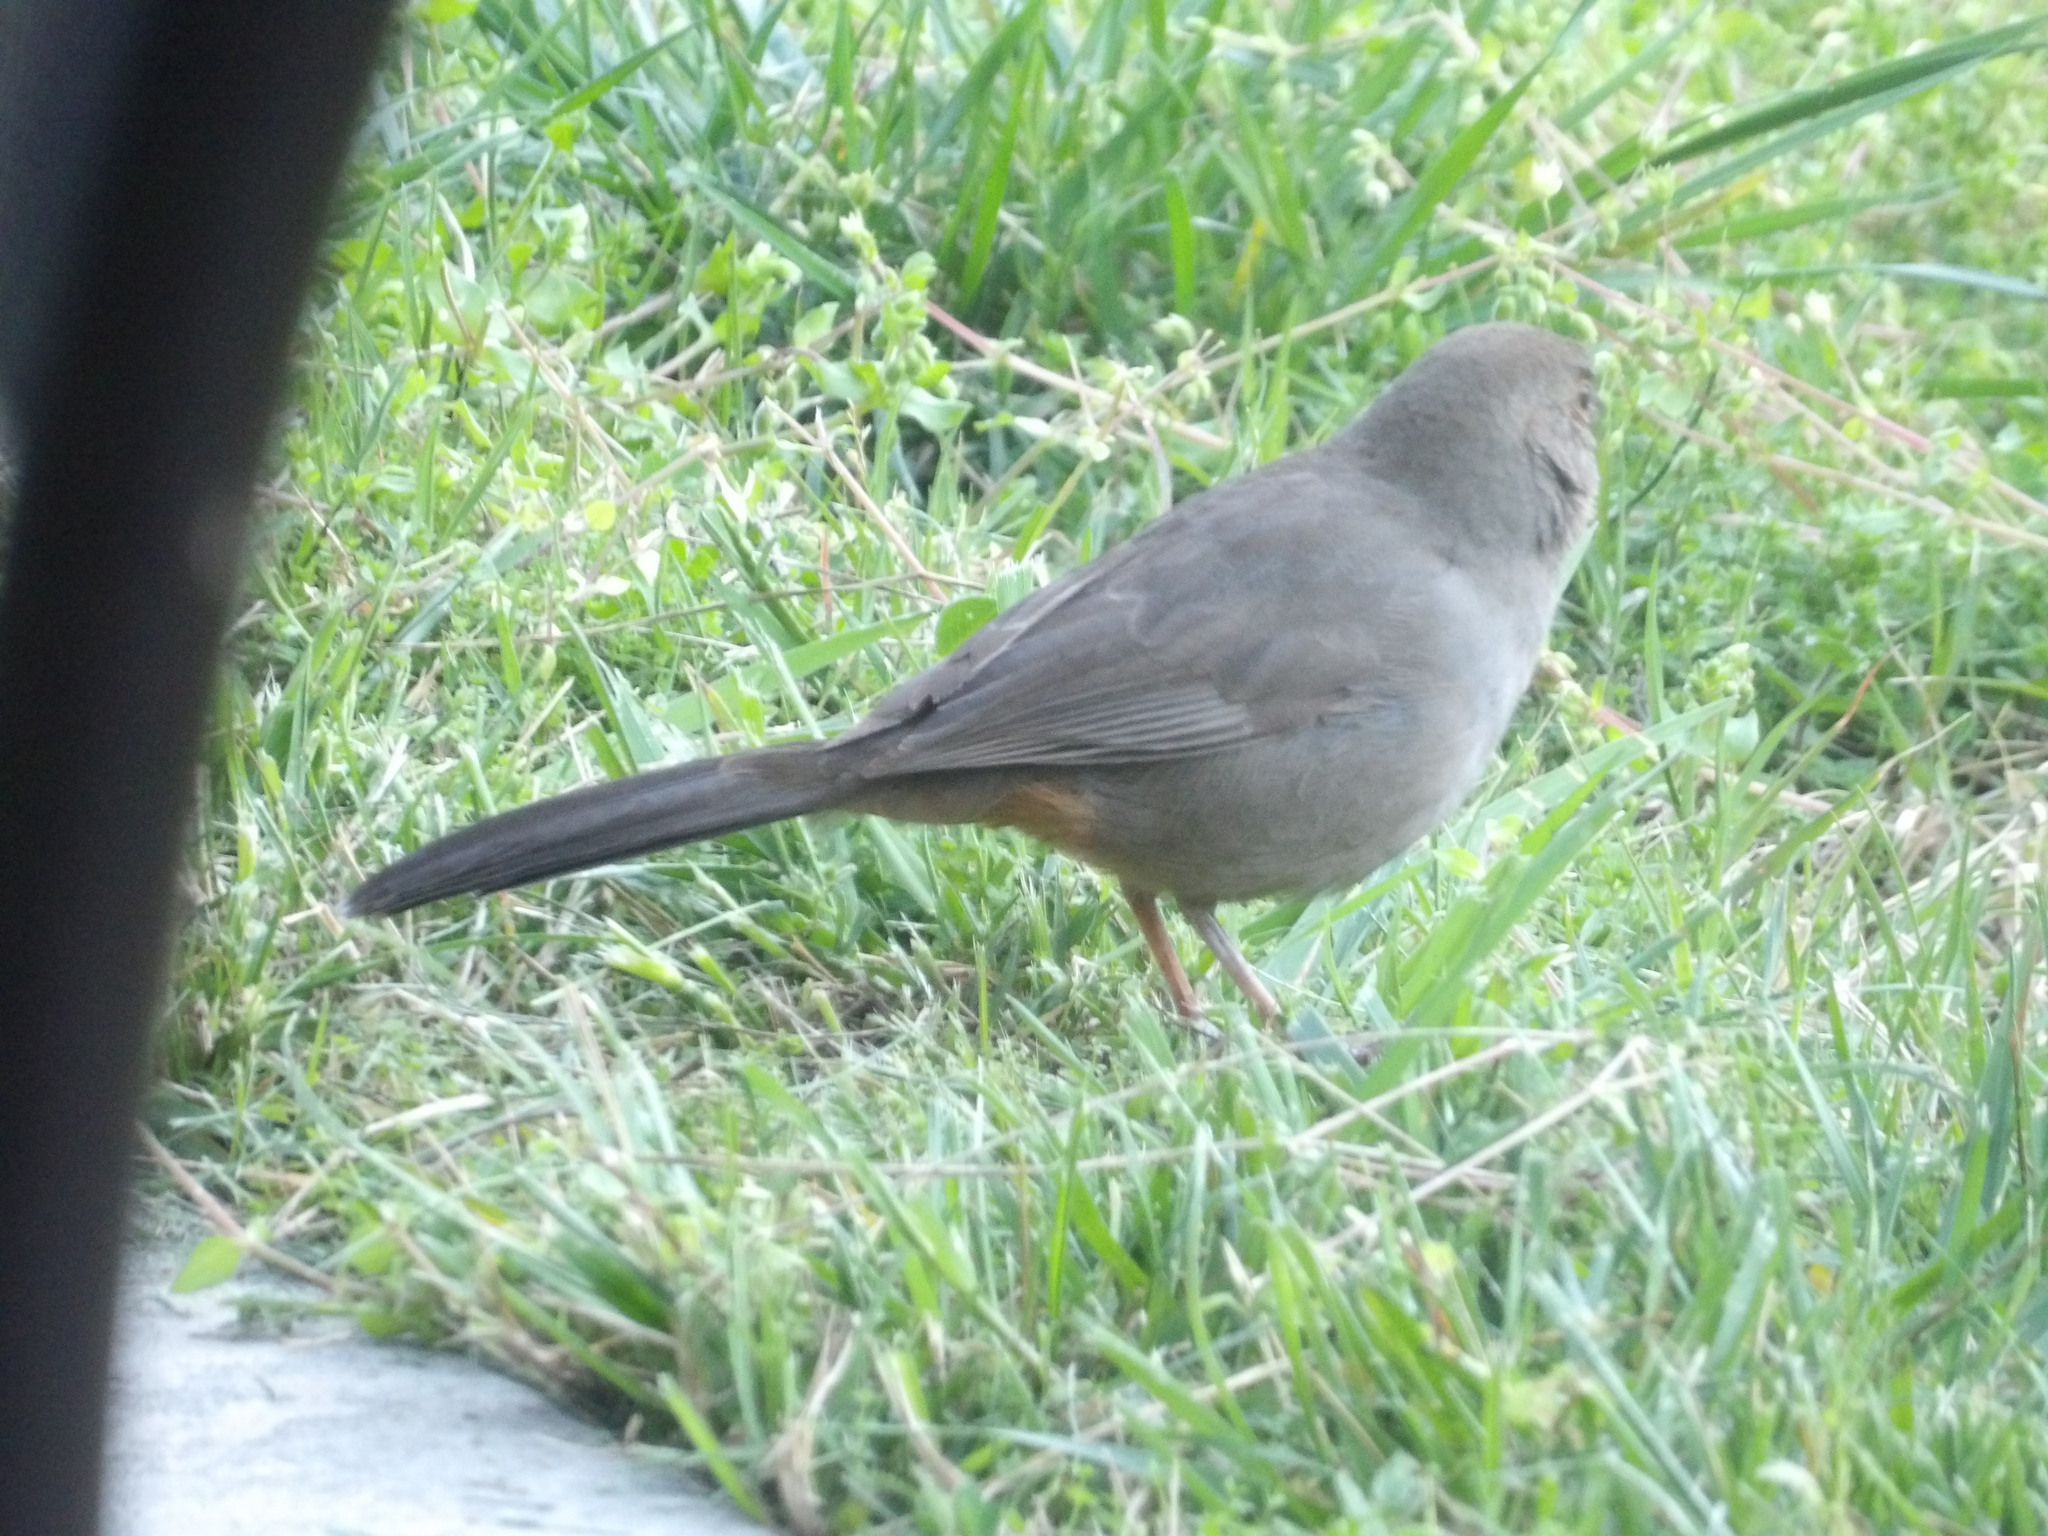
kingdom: Animalia
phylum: Chordata
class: Aves
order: Passeriformes
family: Passerellidae
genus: Melozone
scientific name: Melozone crissalis
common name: California towhee
